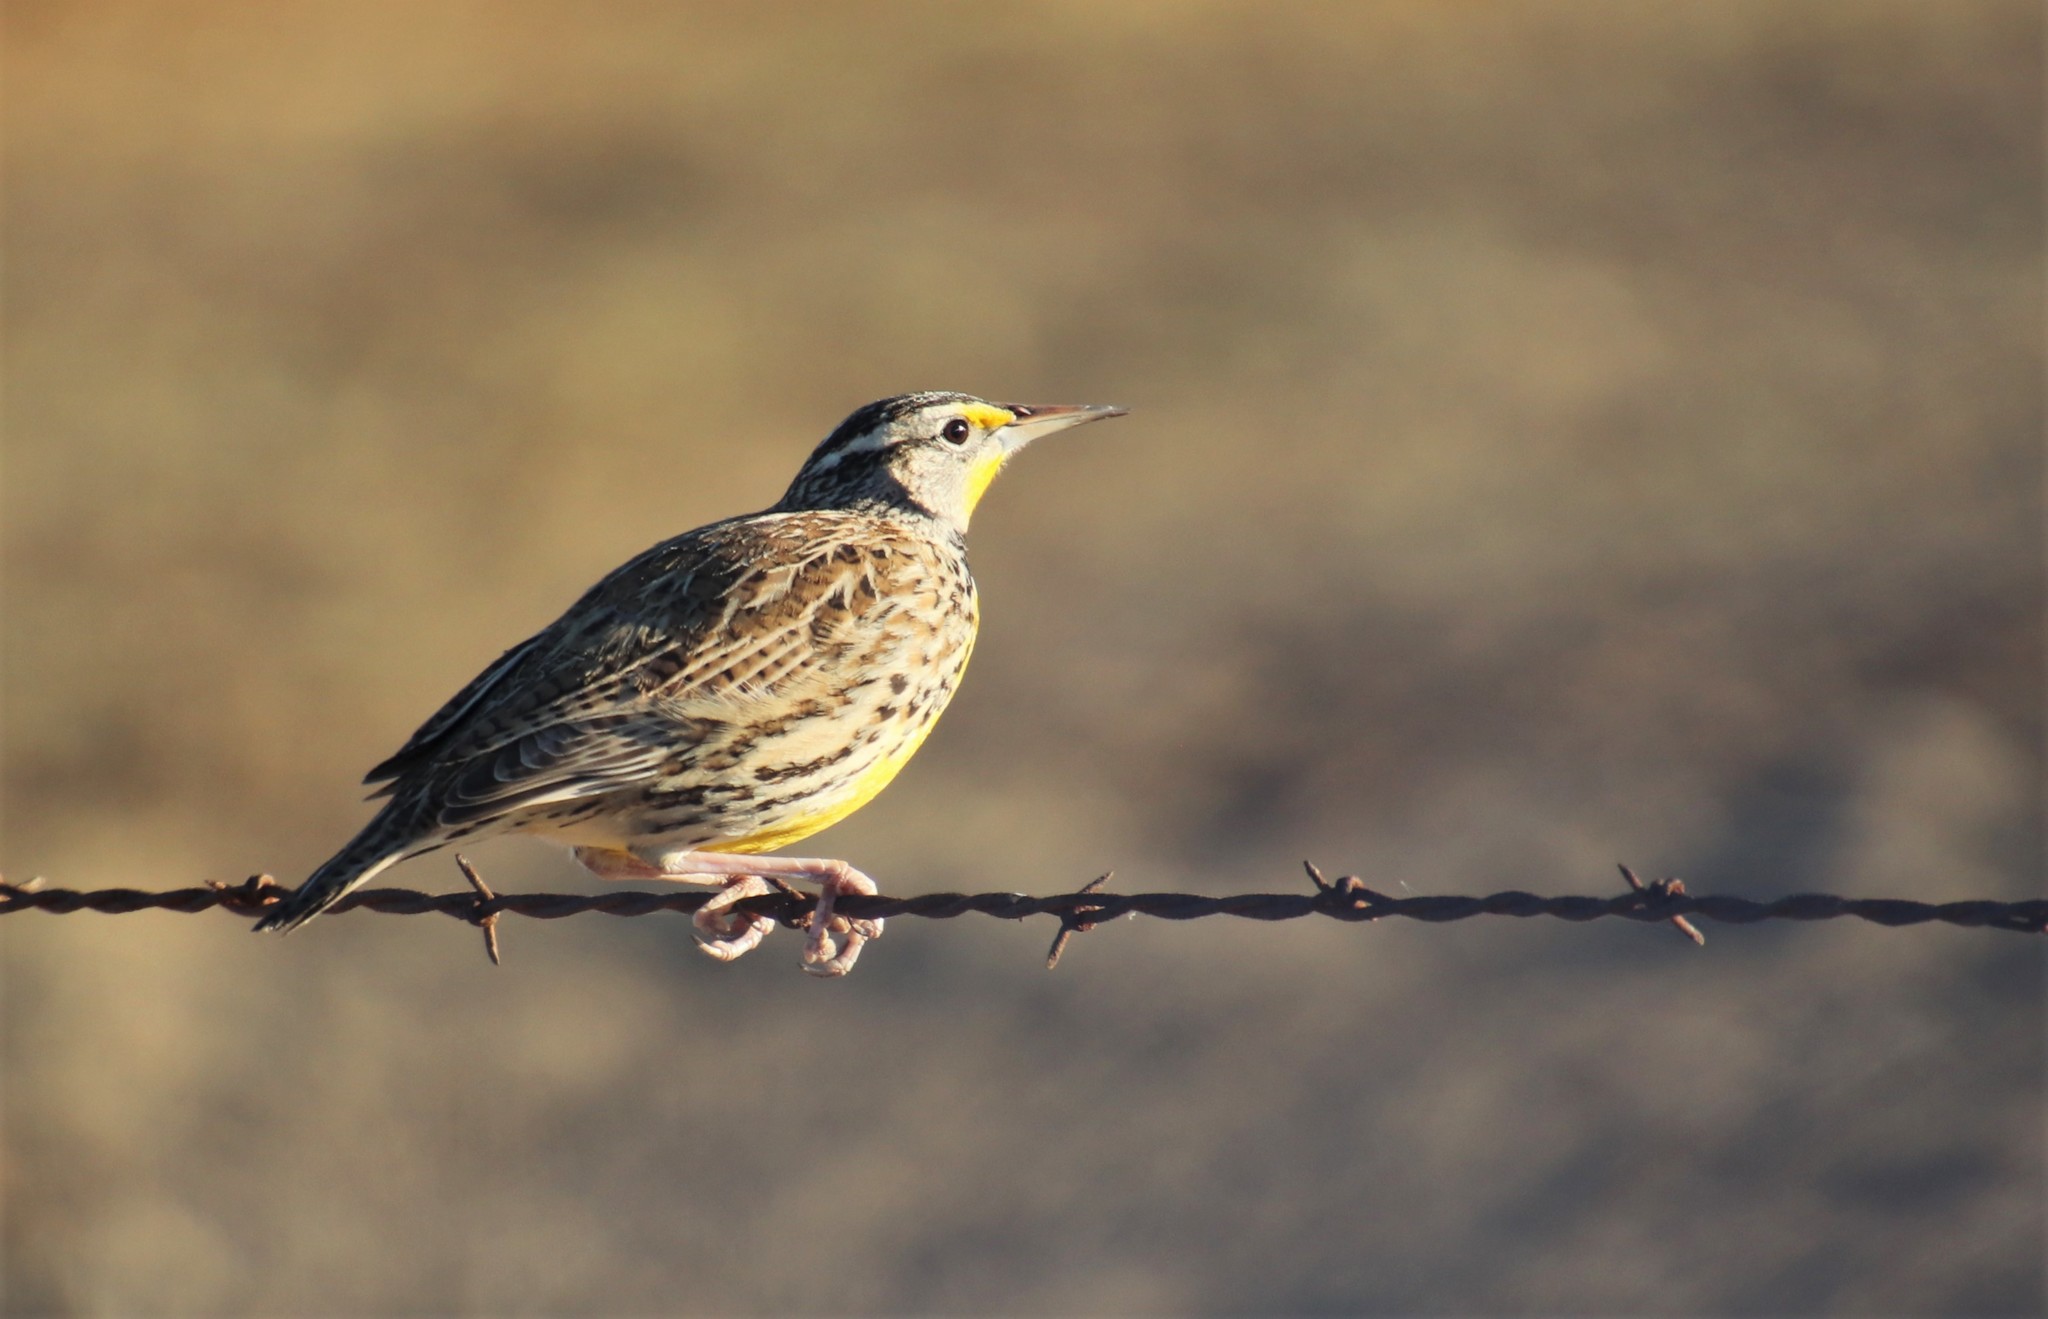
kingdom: Animalia
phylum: Chordata
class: Aves
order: Passeriformes
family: Icteridae
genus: Sturnella
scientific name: Sturnella neglecta
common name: Western meadowlark
